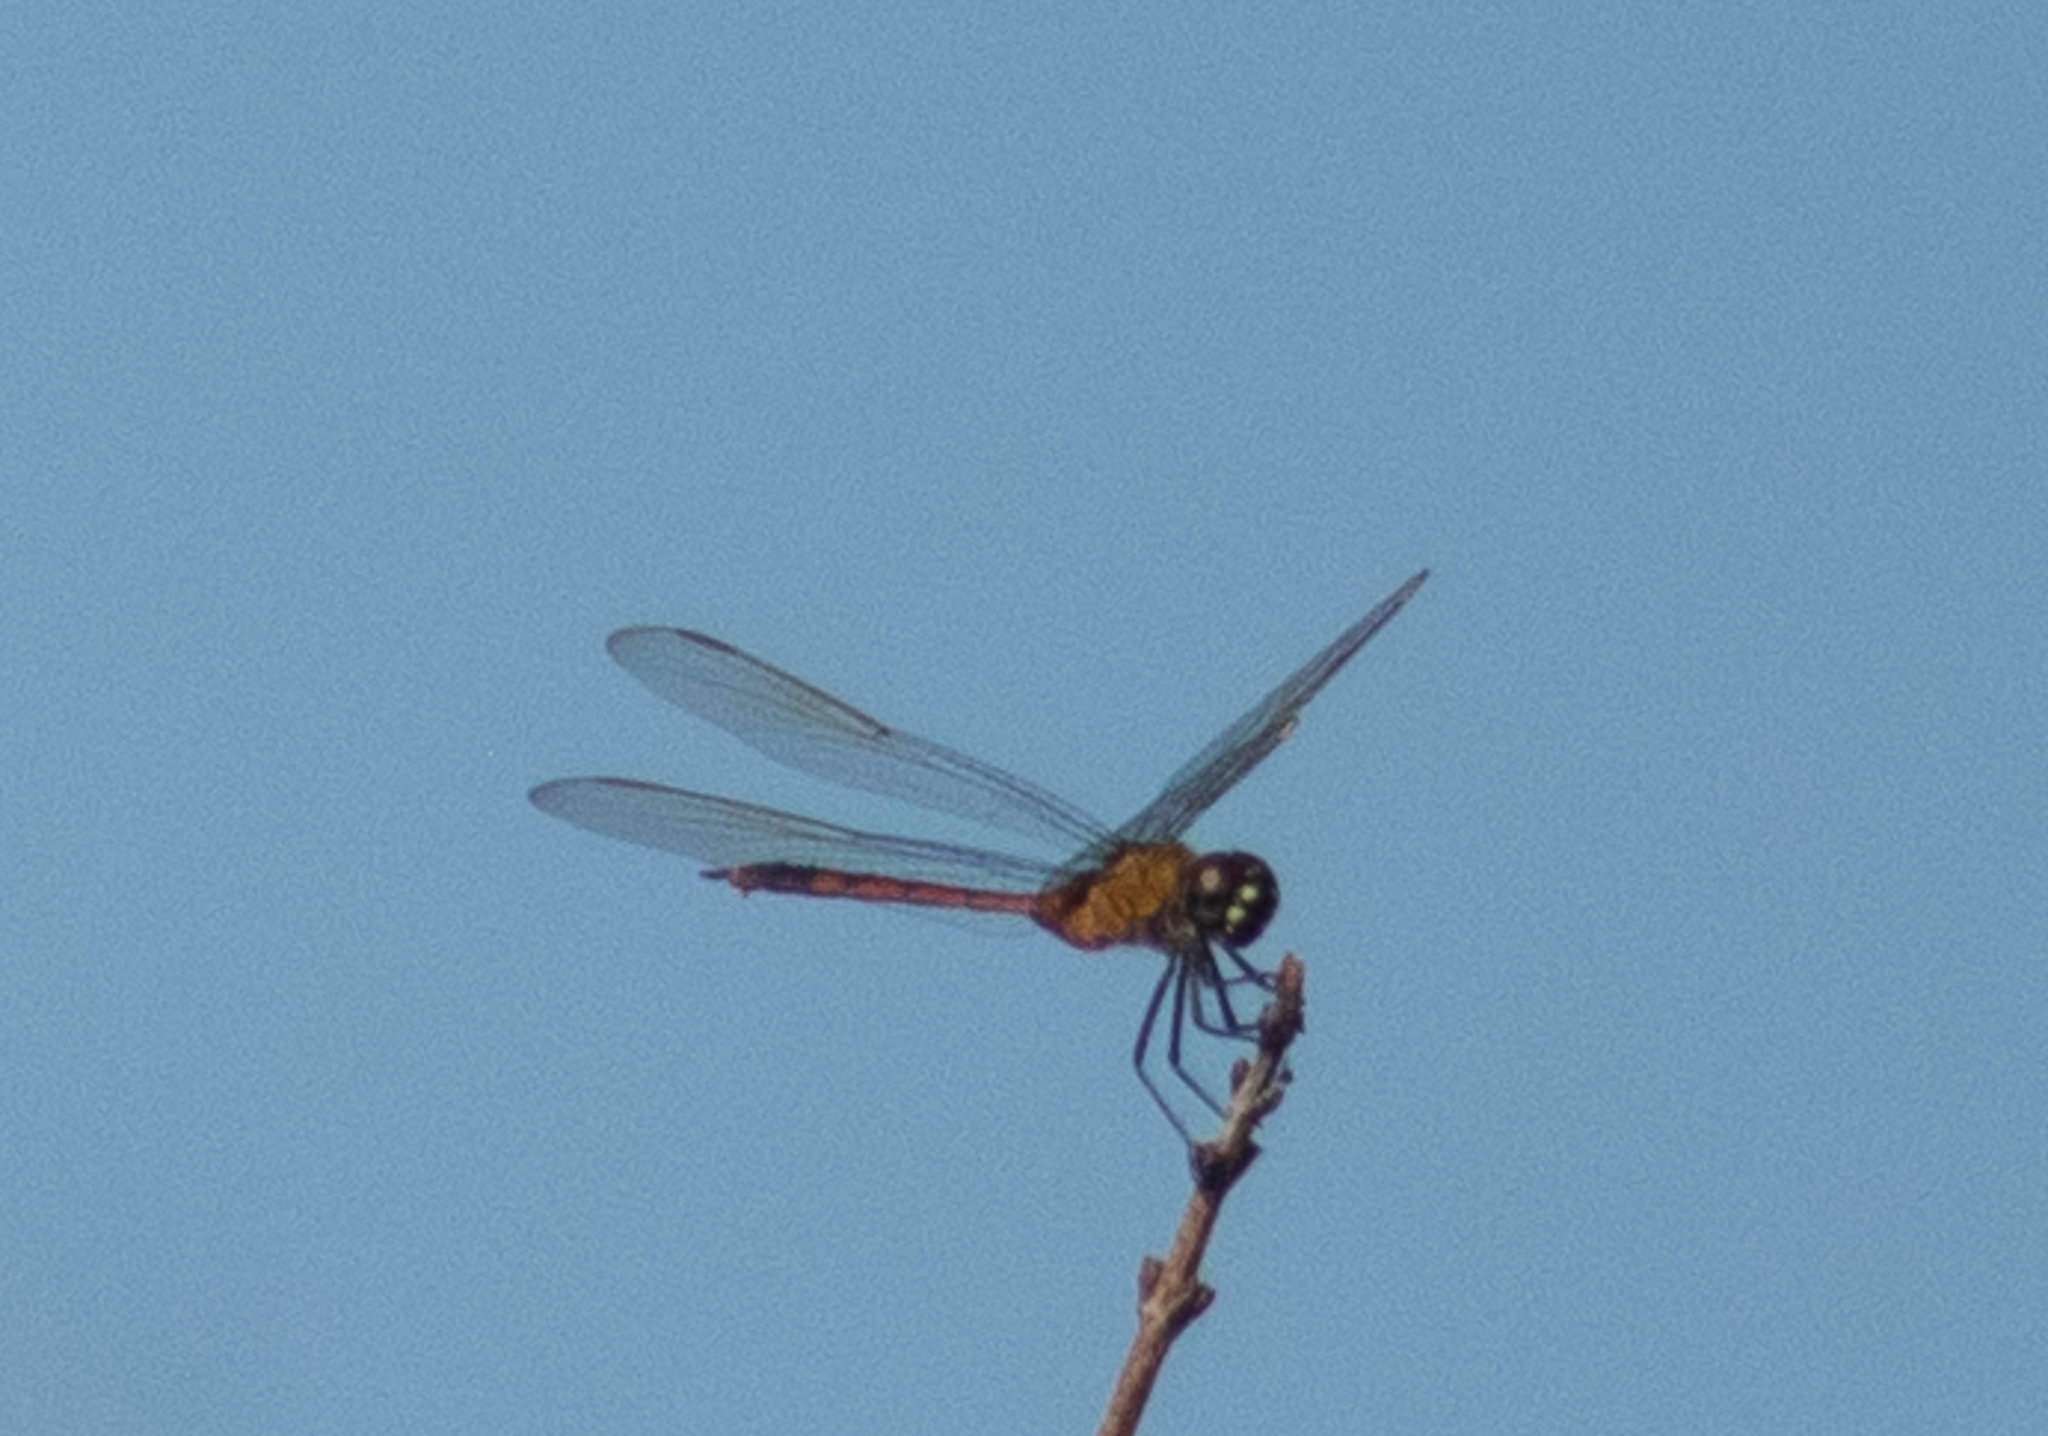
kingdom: Animalia
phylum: Arthropoda
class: Insecta
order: Odonata
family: Libellulidae
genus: Brachymesia
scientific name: Brachymesia gravida
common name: Four-spotted pennant
